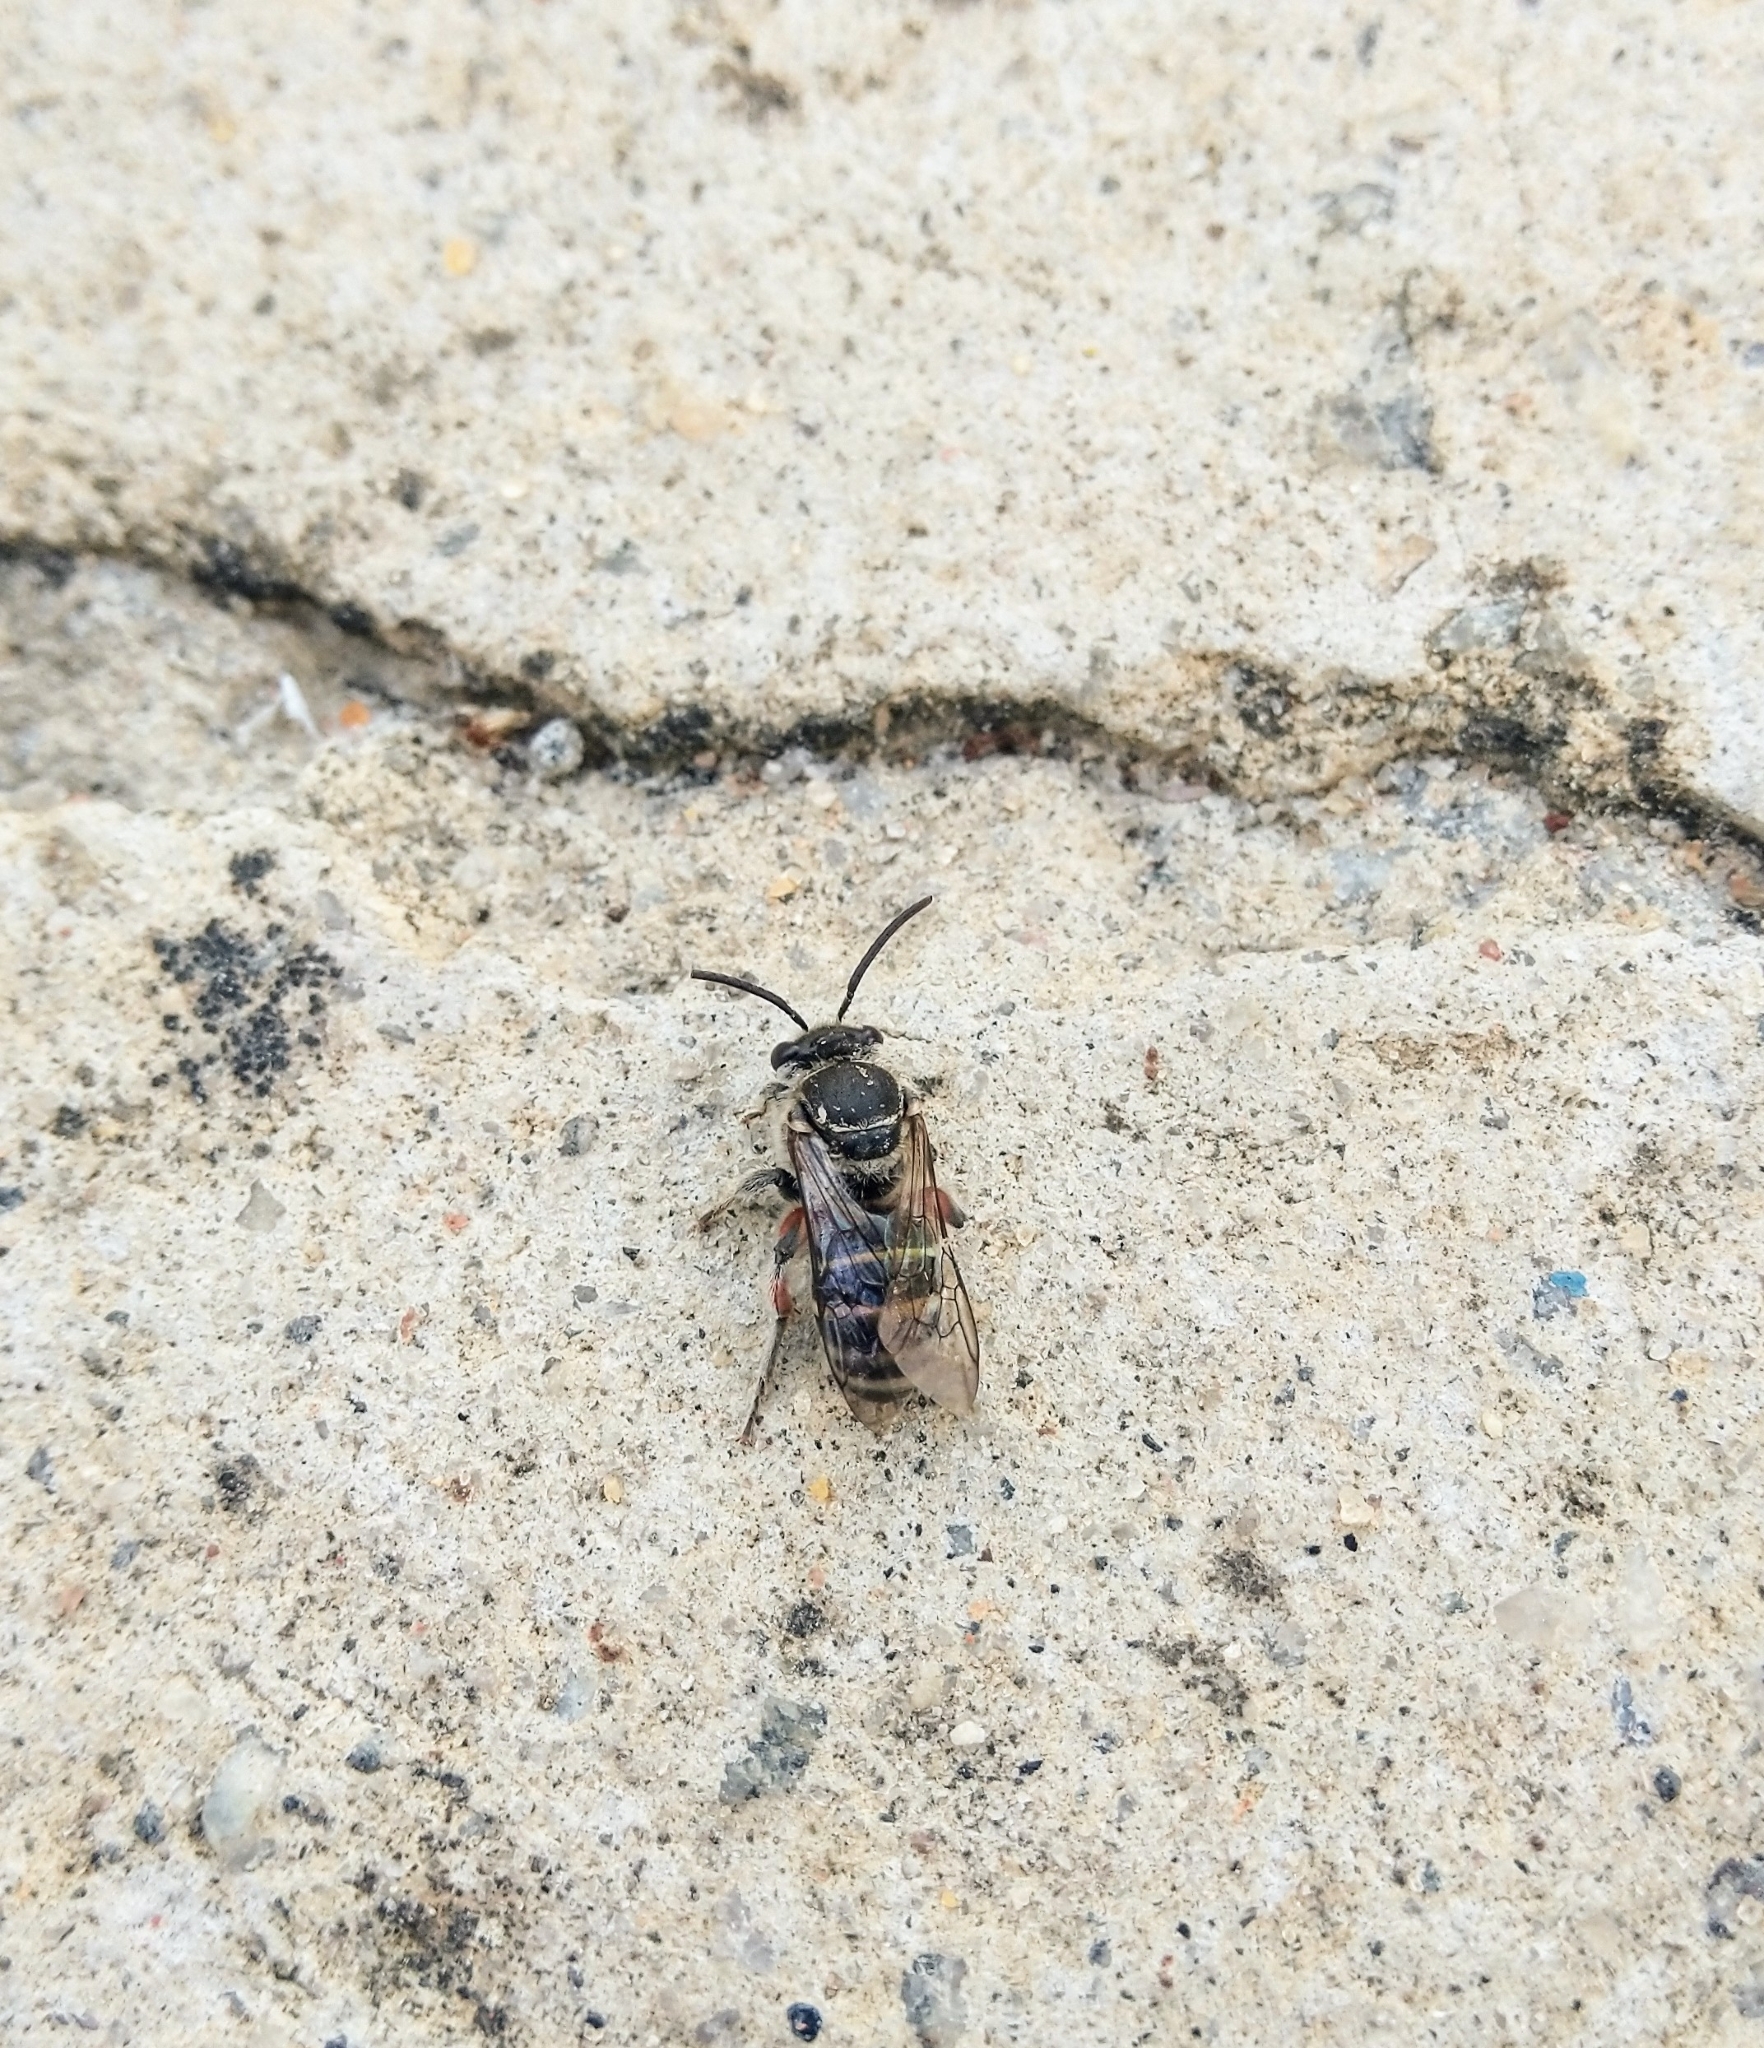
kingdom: Animalia
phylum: Arthropoda
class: Insecta
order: Hymenoptera
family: Halictidae
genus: Nomia
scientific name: Nomia westwoodi
